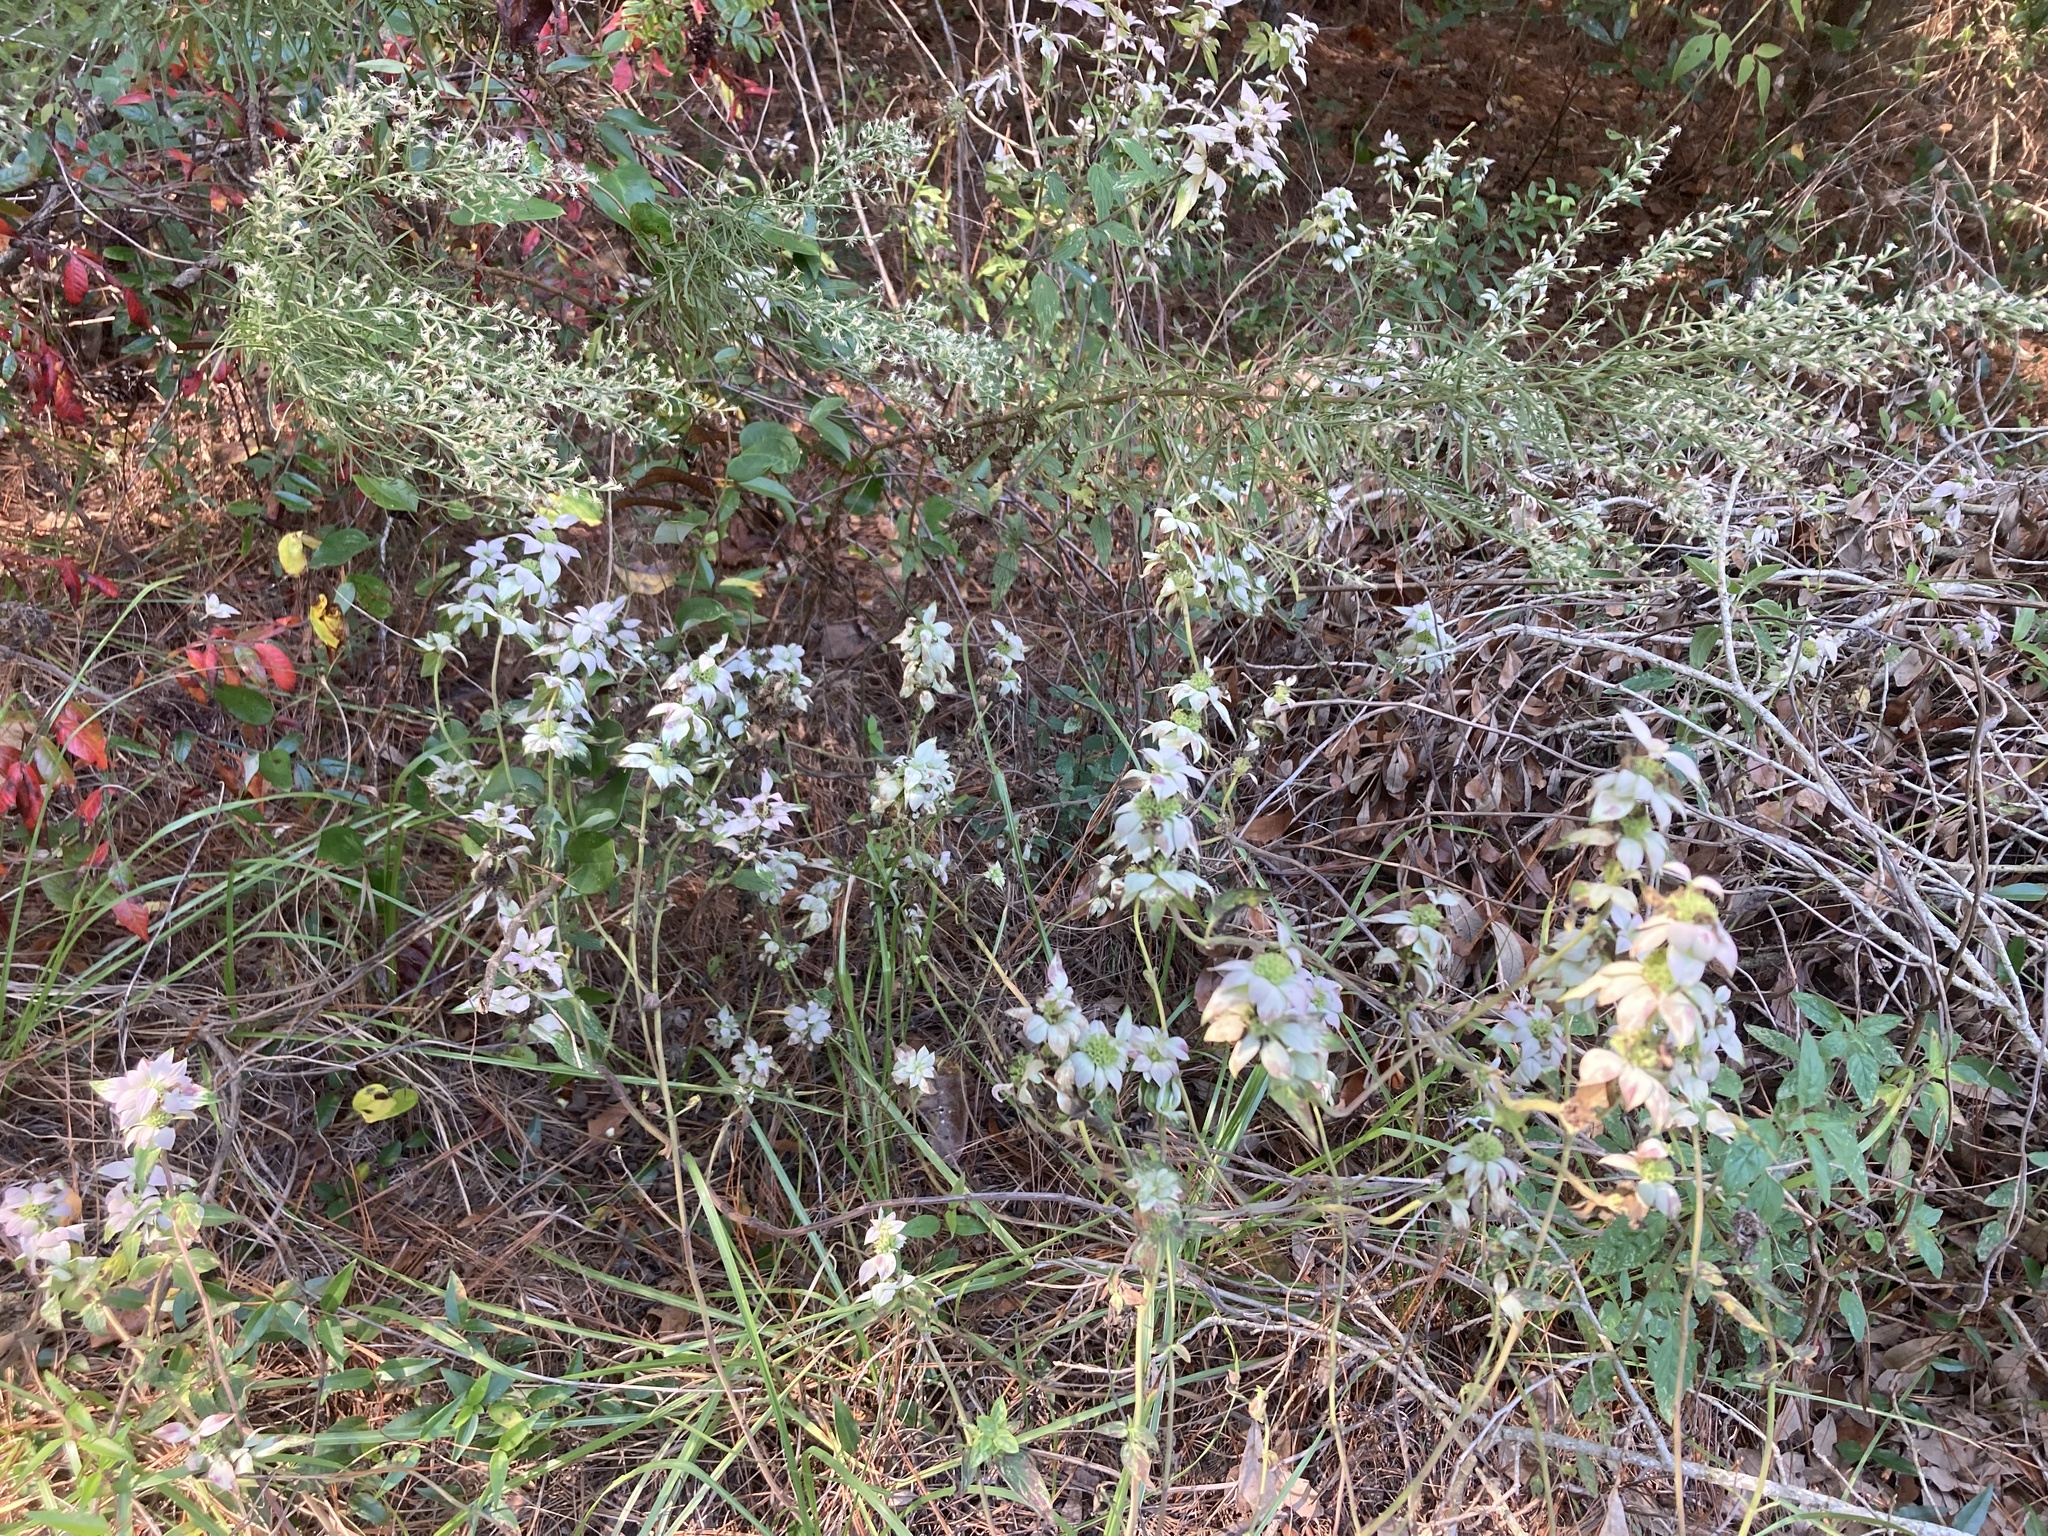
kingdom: Plantae
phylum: Tracheophyta
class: Magnoliopsida
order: Lamiales
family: Lamiaceae
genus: Monarda
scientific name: Monarda punctata
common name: Dotted monarda
